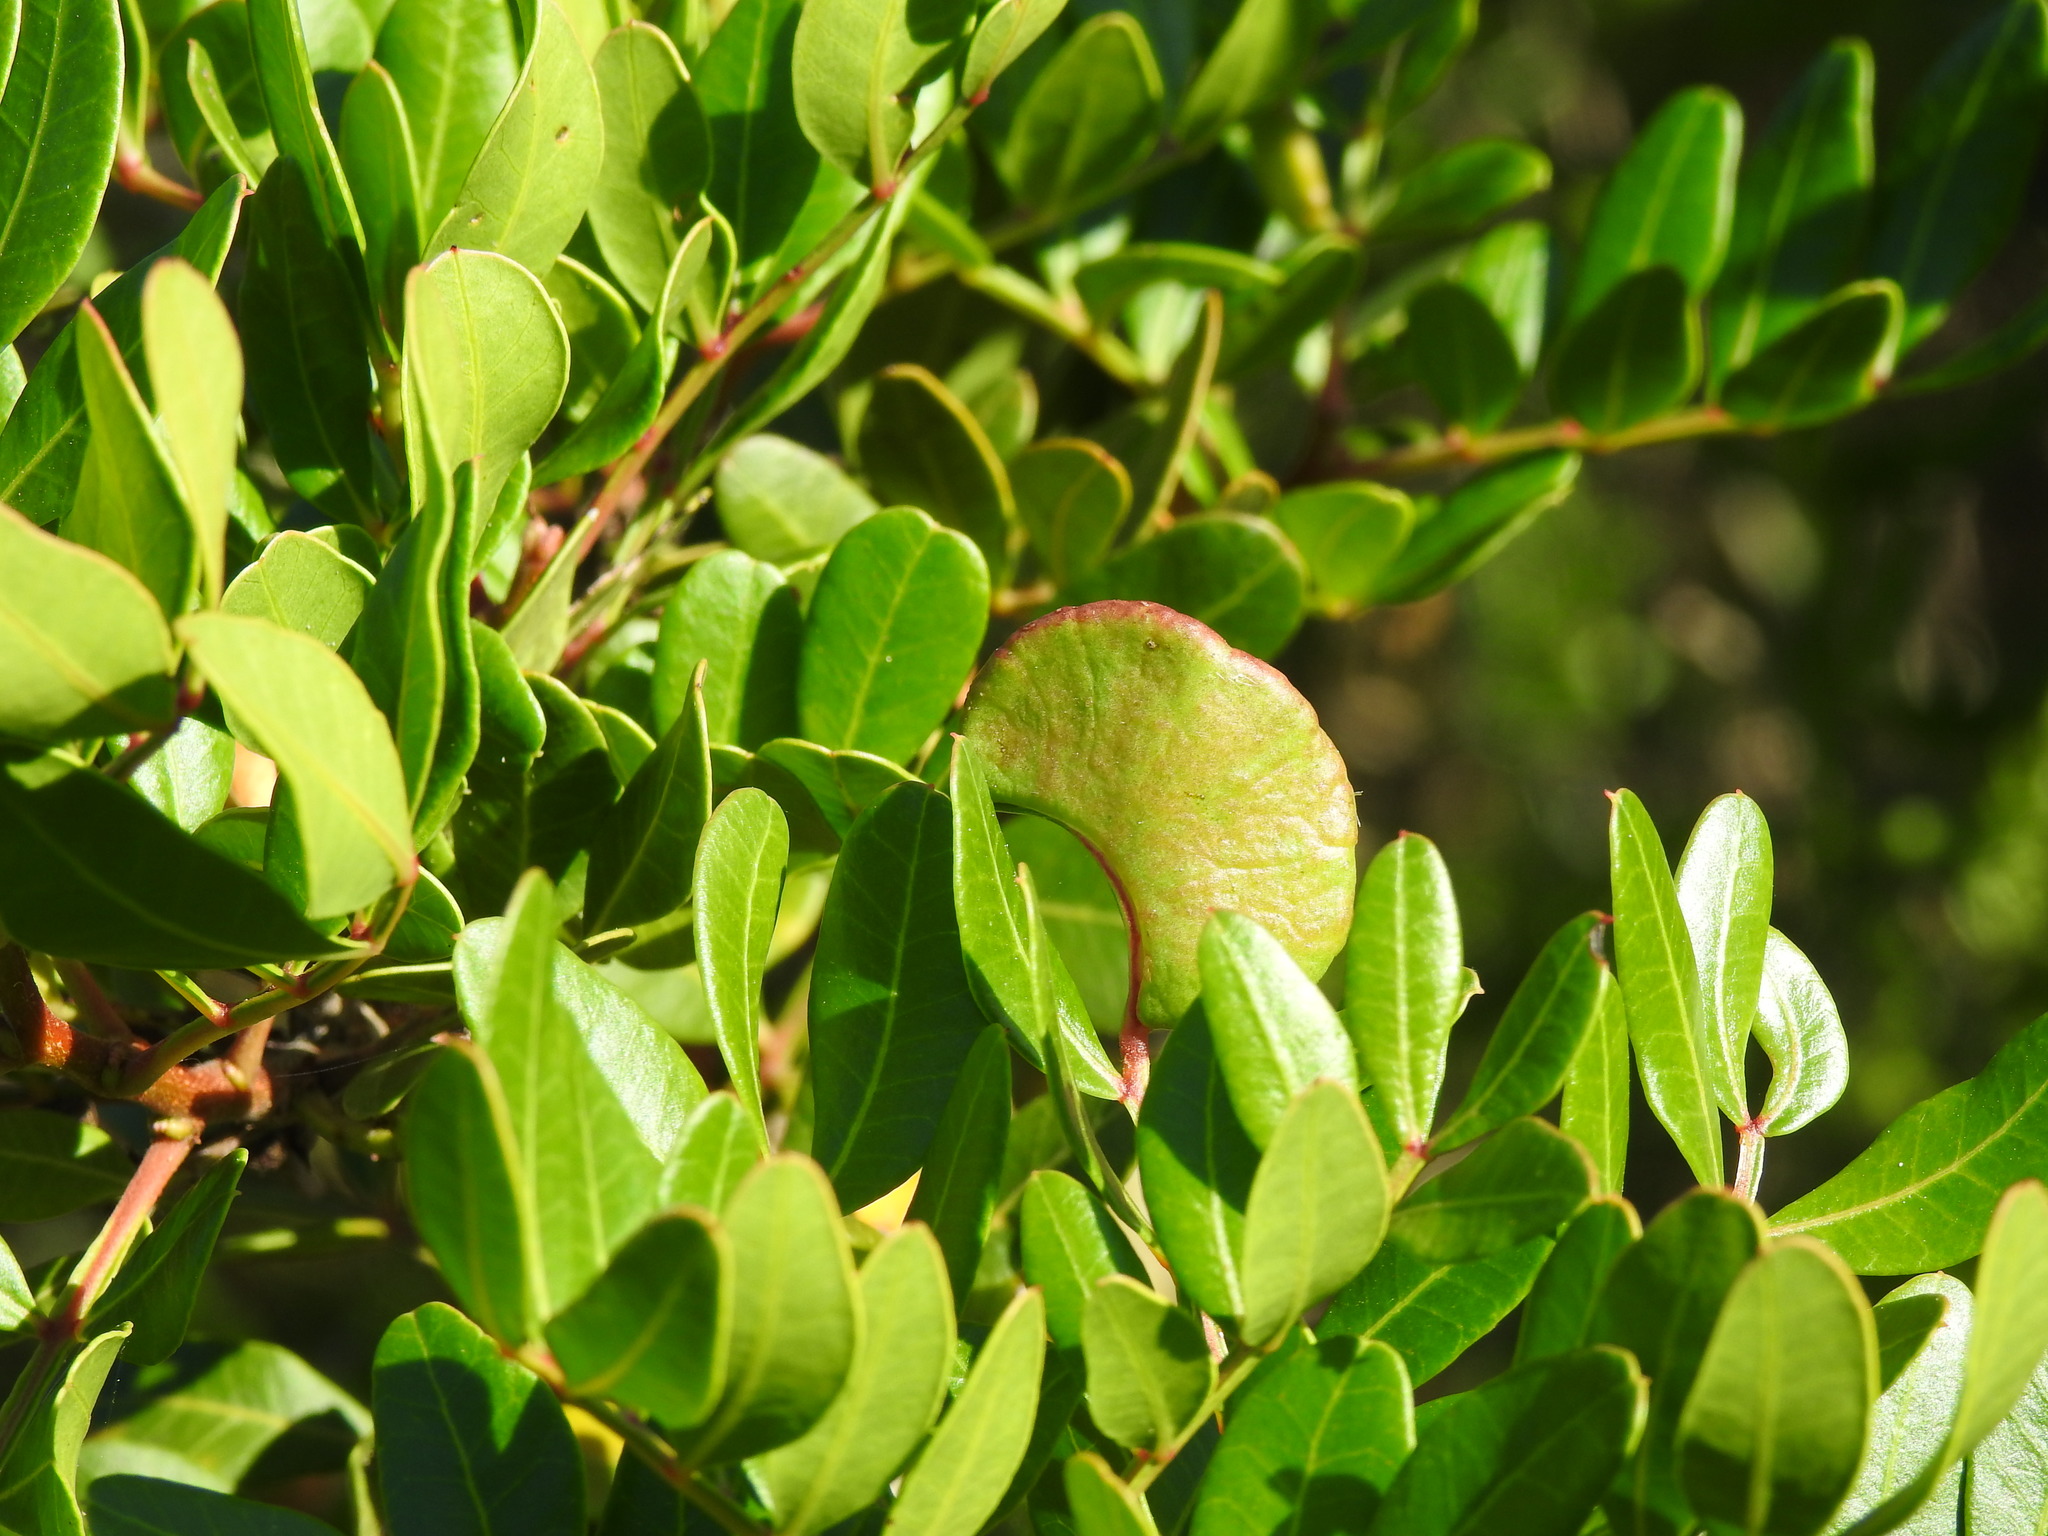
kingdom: Animalia
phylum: Arthropoda
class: Insecta
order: Hemiptera
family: Aphididae
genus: Aploneura
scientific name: Aploneura lentisci
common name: Mealy grass root aphid
